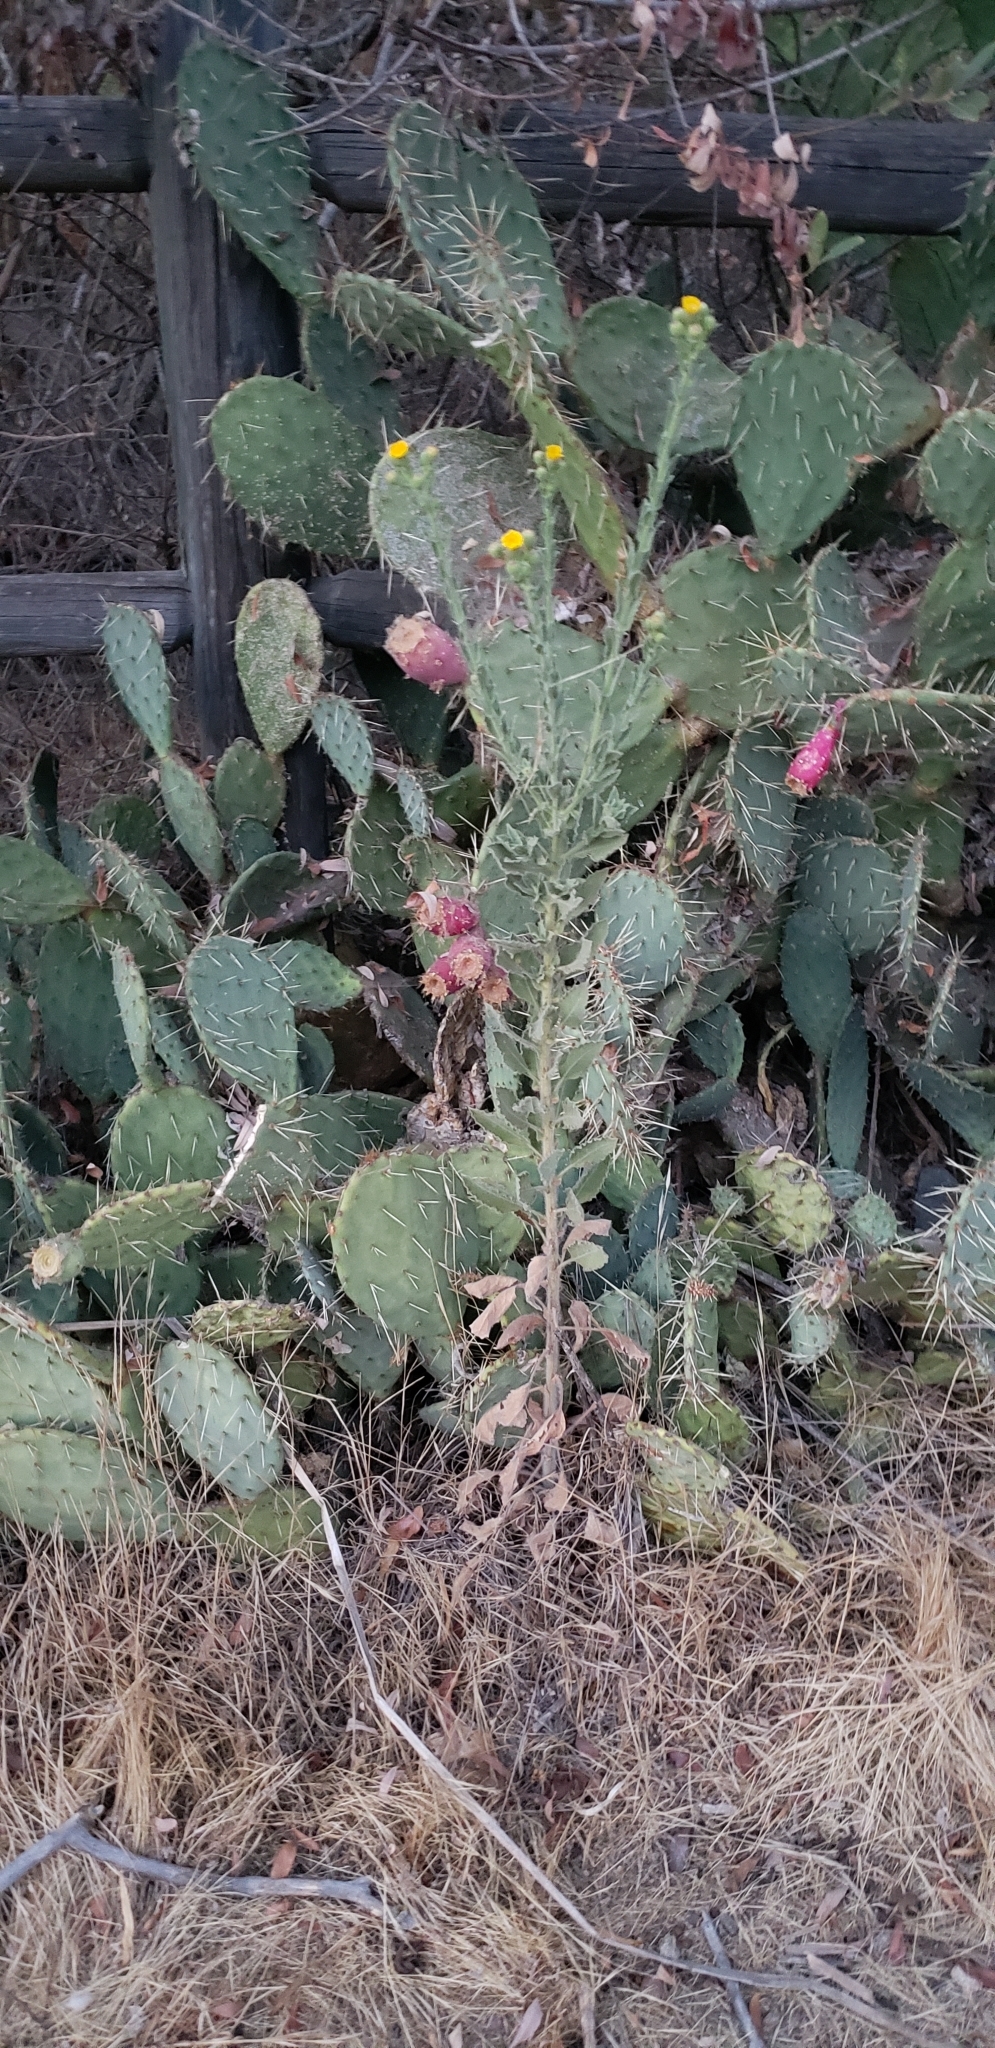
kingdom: Plantae
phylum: Tracheophyta
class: Magnoliopsida
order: Asterales
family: Asteraceae
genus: Heterotheca
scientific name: Heterotheca grandiflora
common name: Telegraphweed
